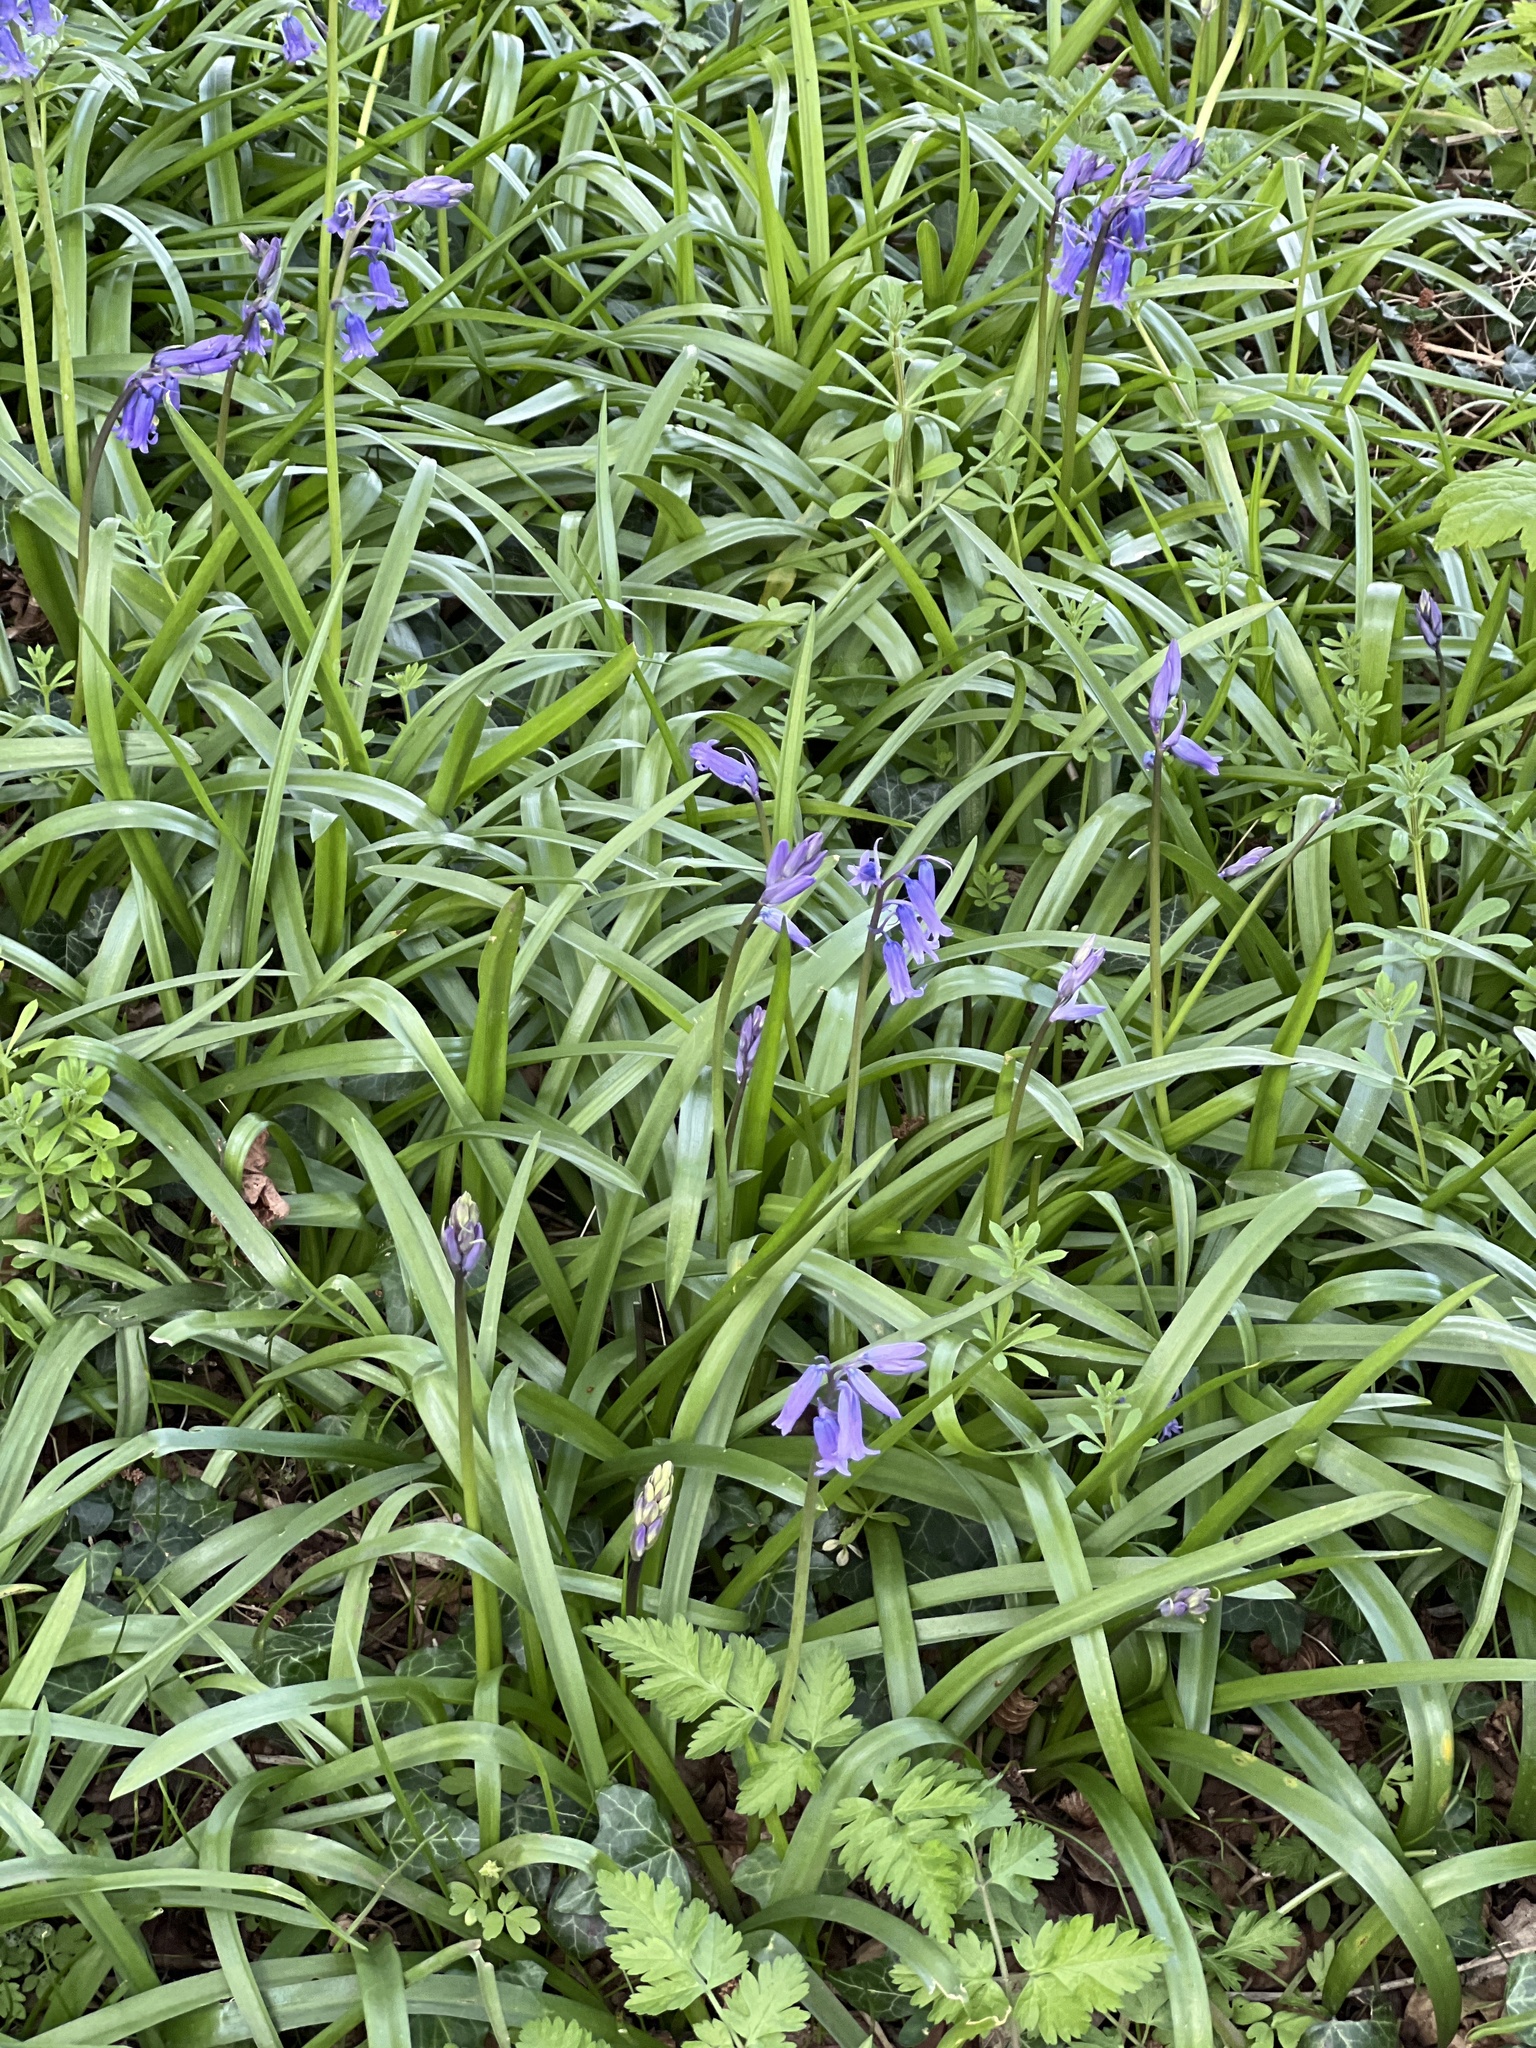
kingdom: Plantae
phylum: Tracheophyta
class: Liliopsida
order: Asparagales
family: Asparagaceae
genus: Hyacinthoides
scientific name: Hyacinthoides non-scripta
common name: Bluebell
